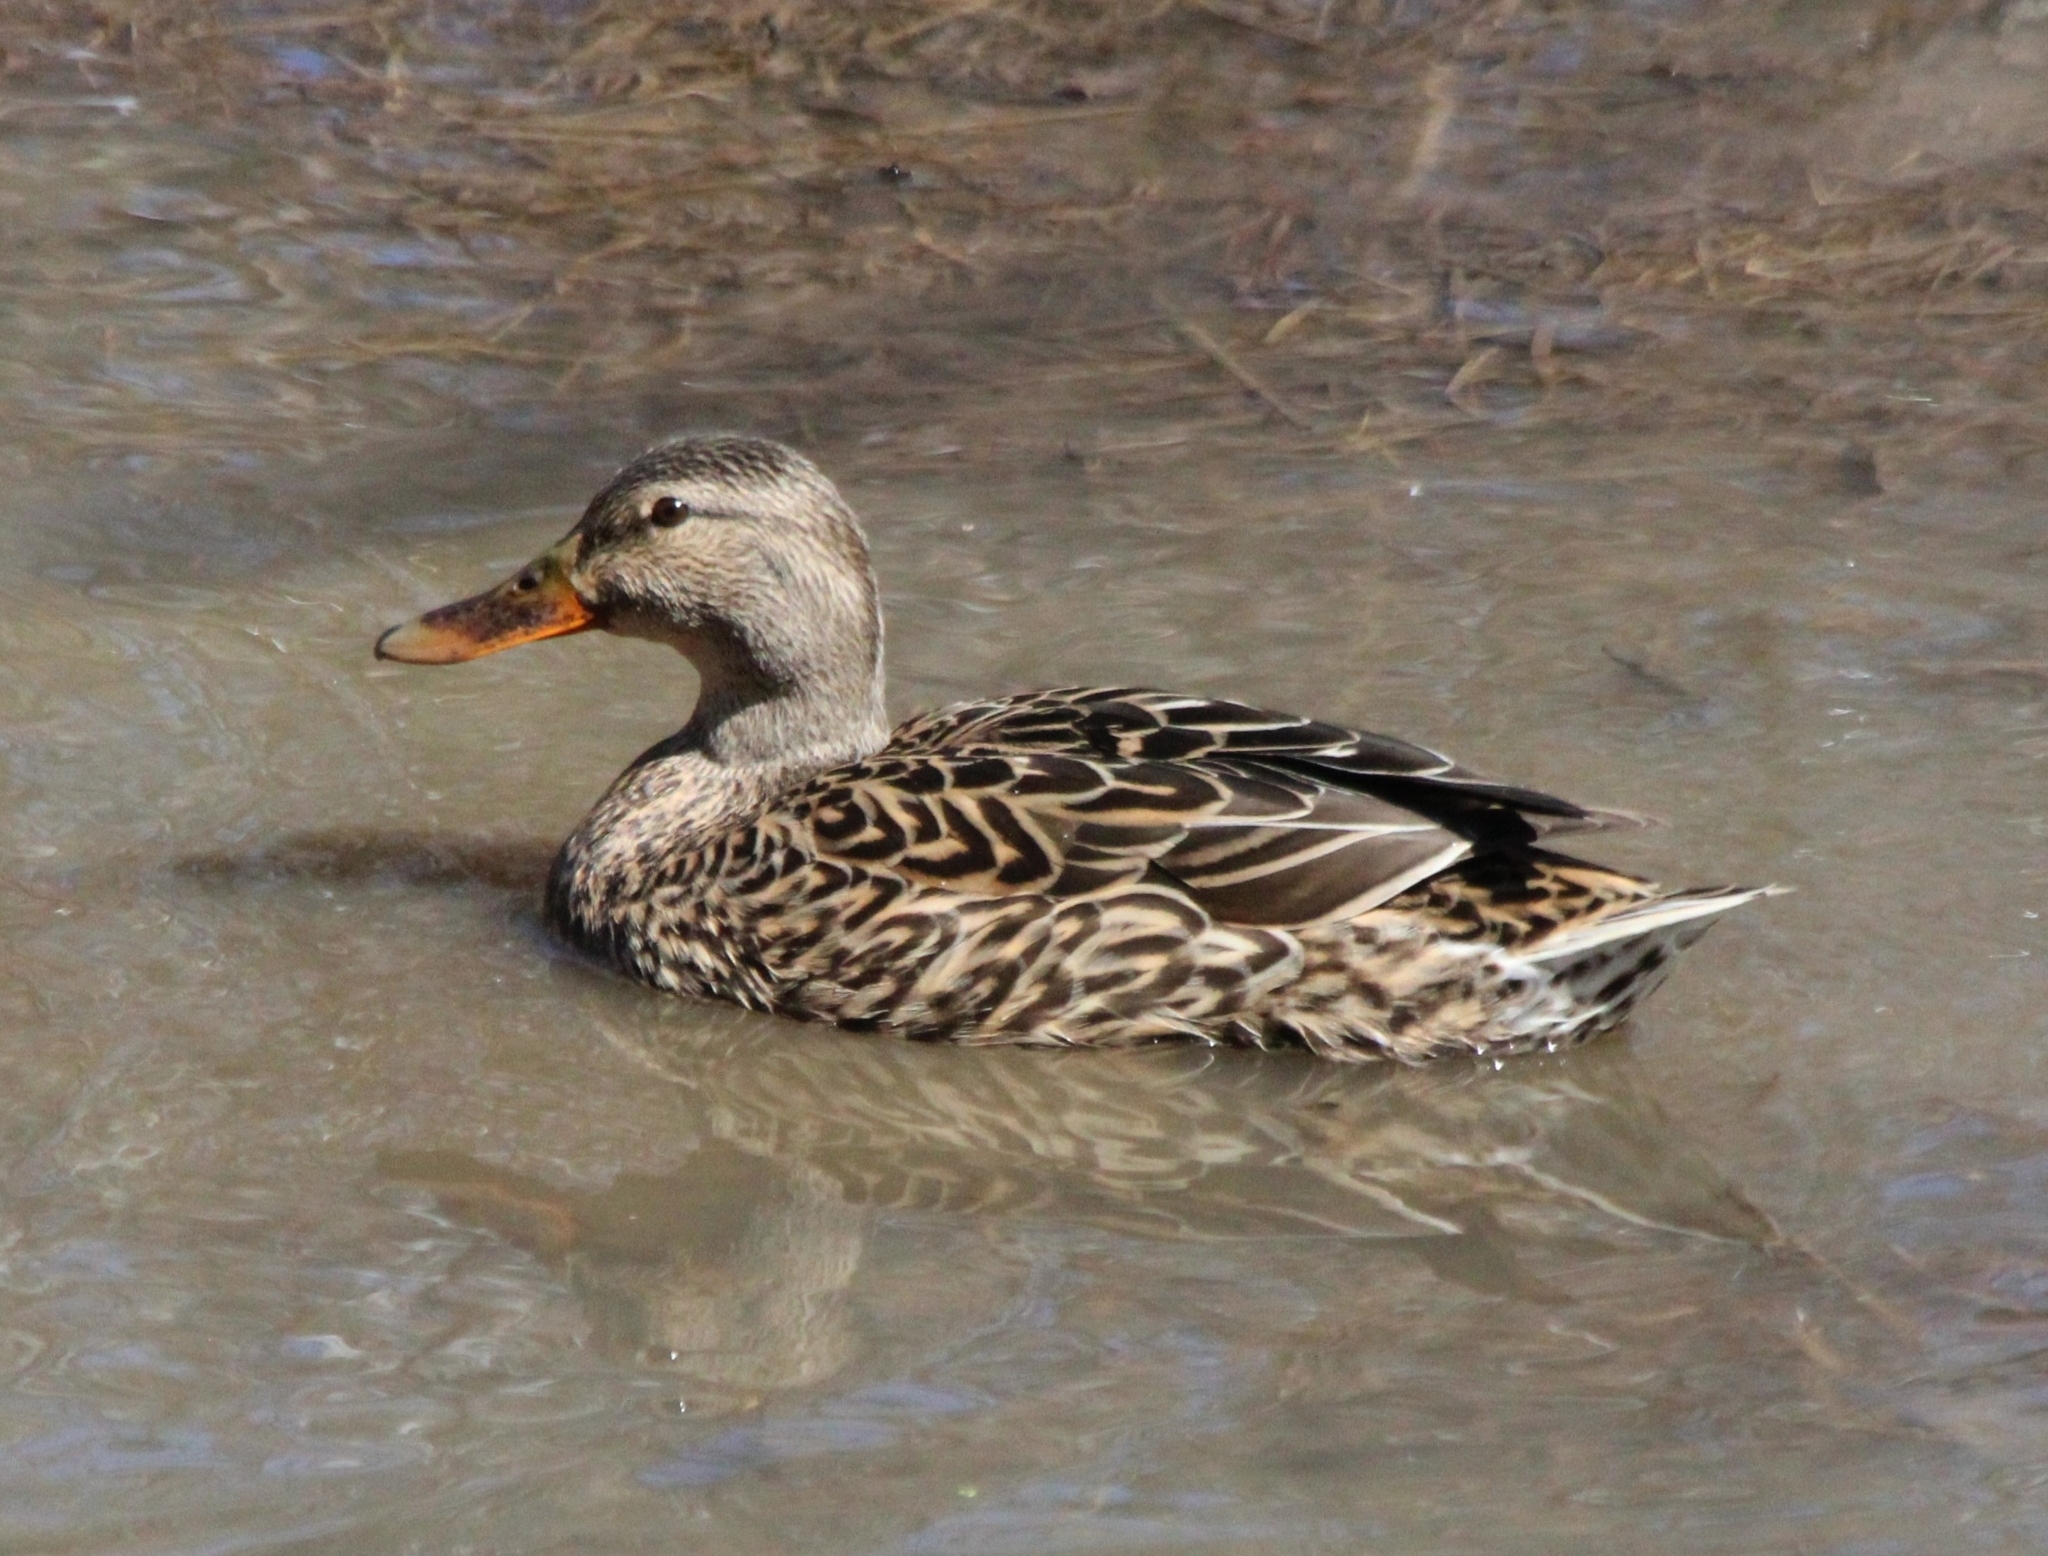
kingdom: Animalia
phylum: Chordata
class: Aves
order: Anseriformes
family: Anatidae
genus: Anas
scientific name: Anas platyrhynchos
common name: Mallard
